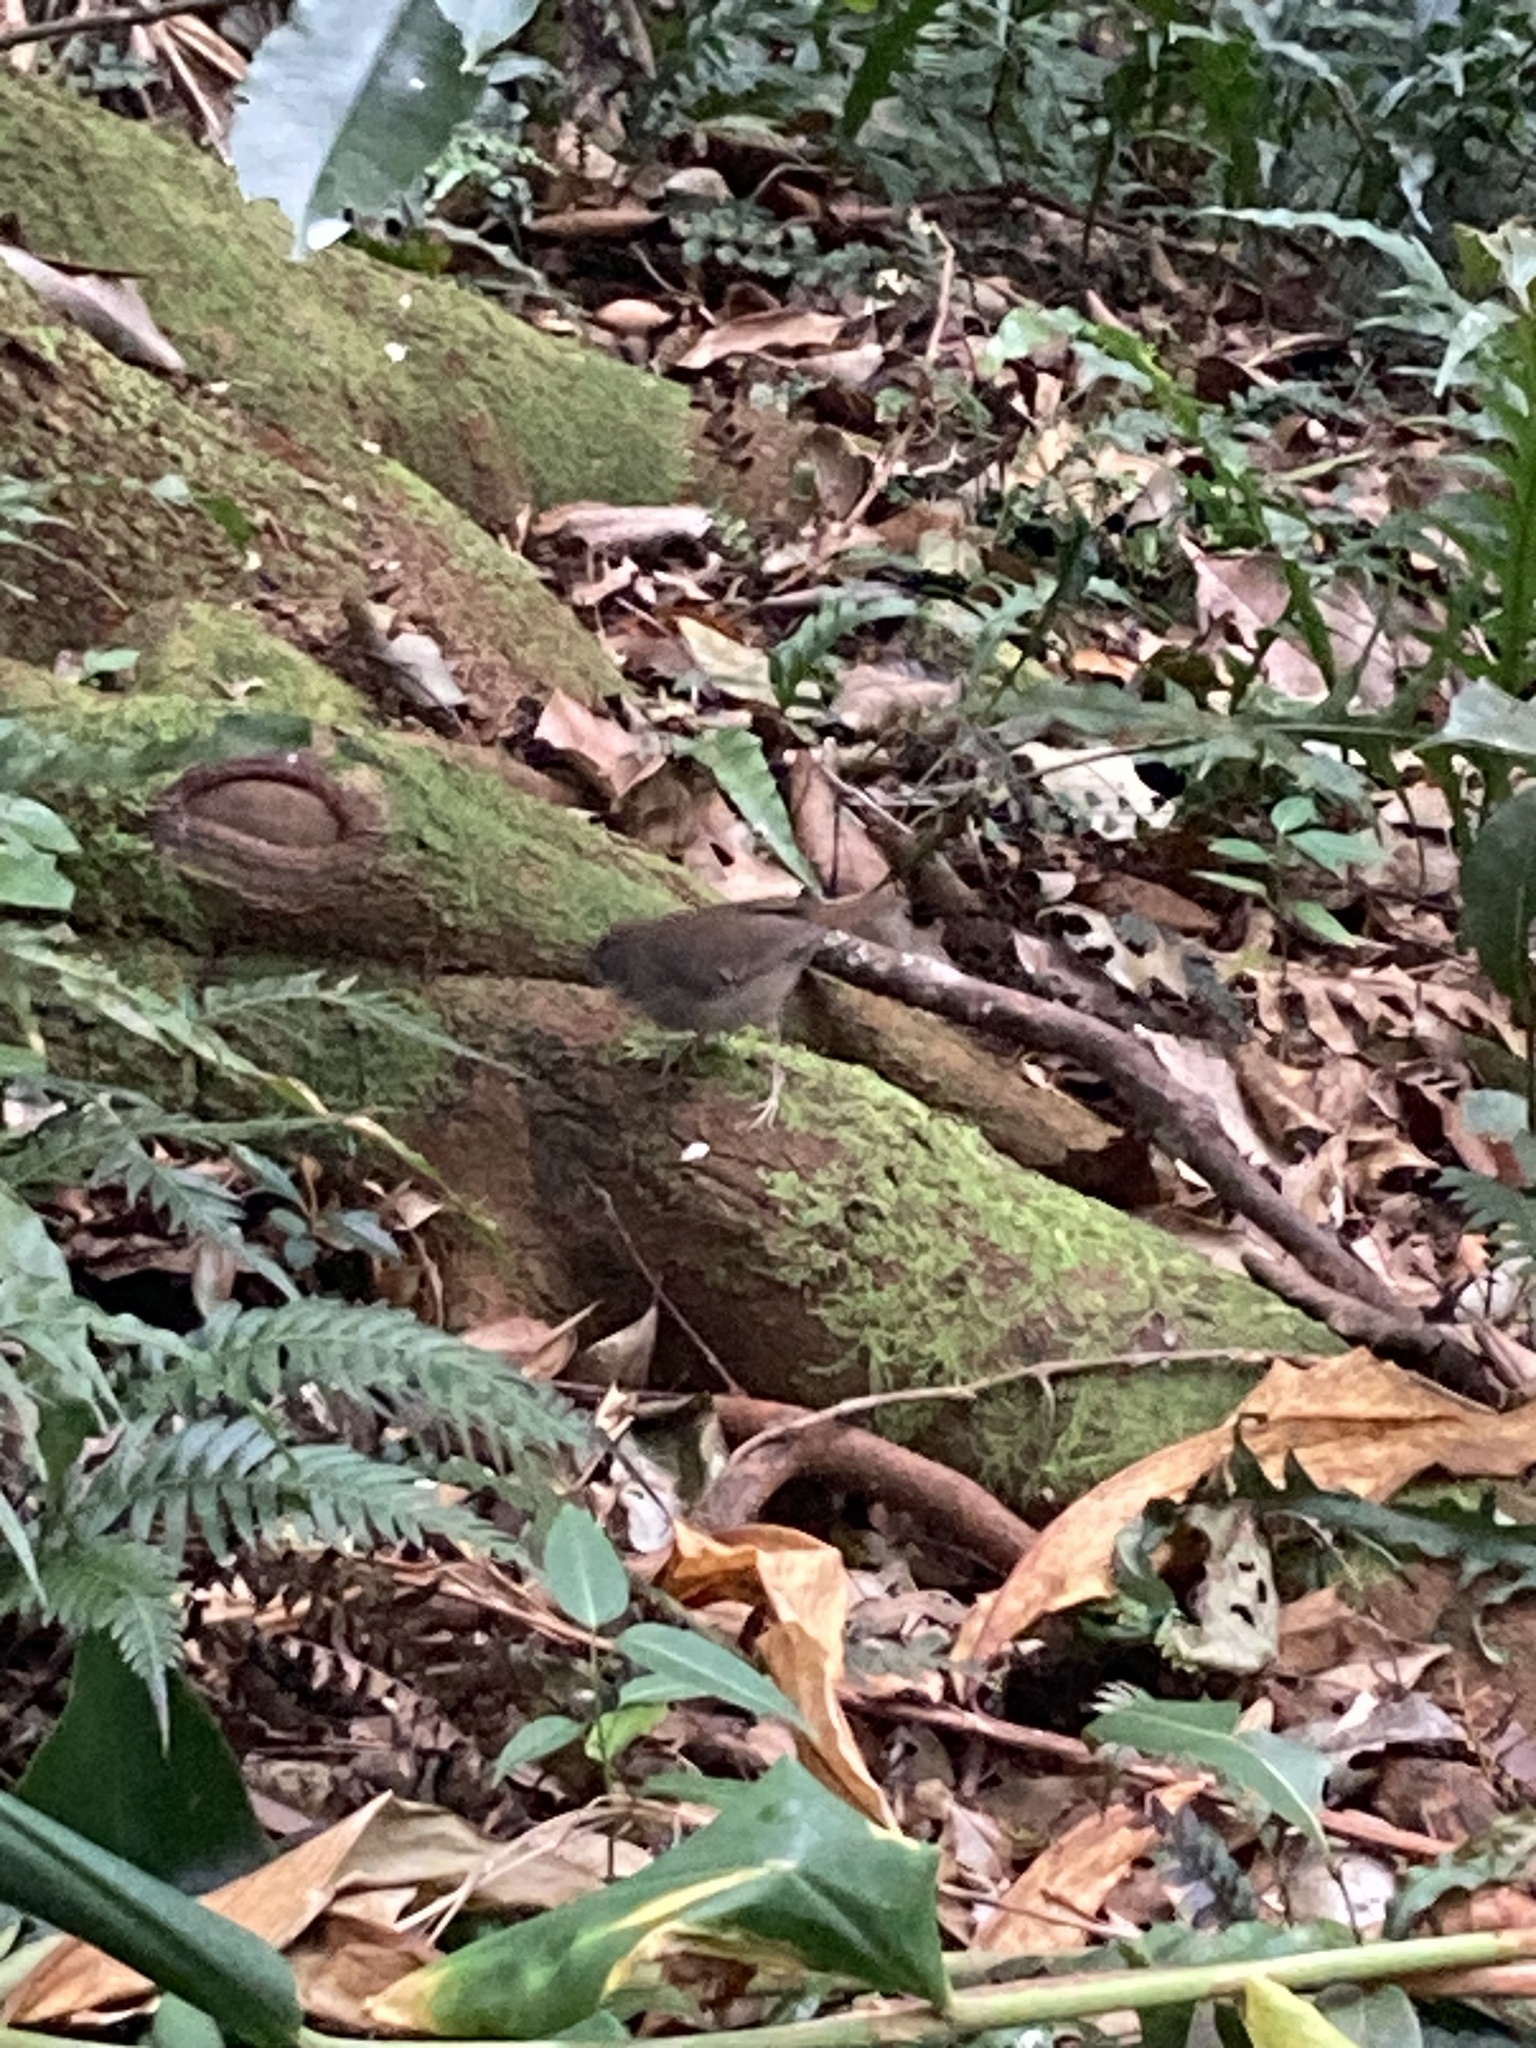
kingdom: Animalia
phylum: Chordata
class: Aves
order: Passeriformes
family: Acanthizidae
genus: Sericornis
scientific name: Sericornis frontalis
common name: White-browed scrubwren
